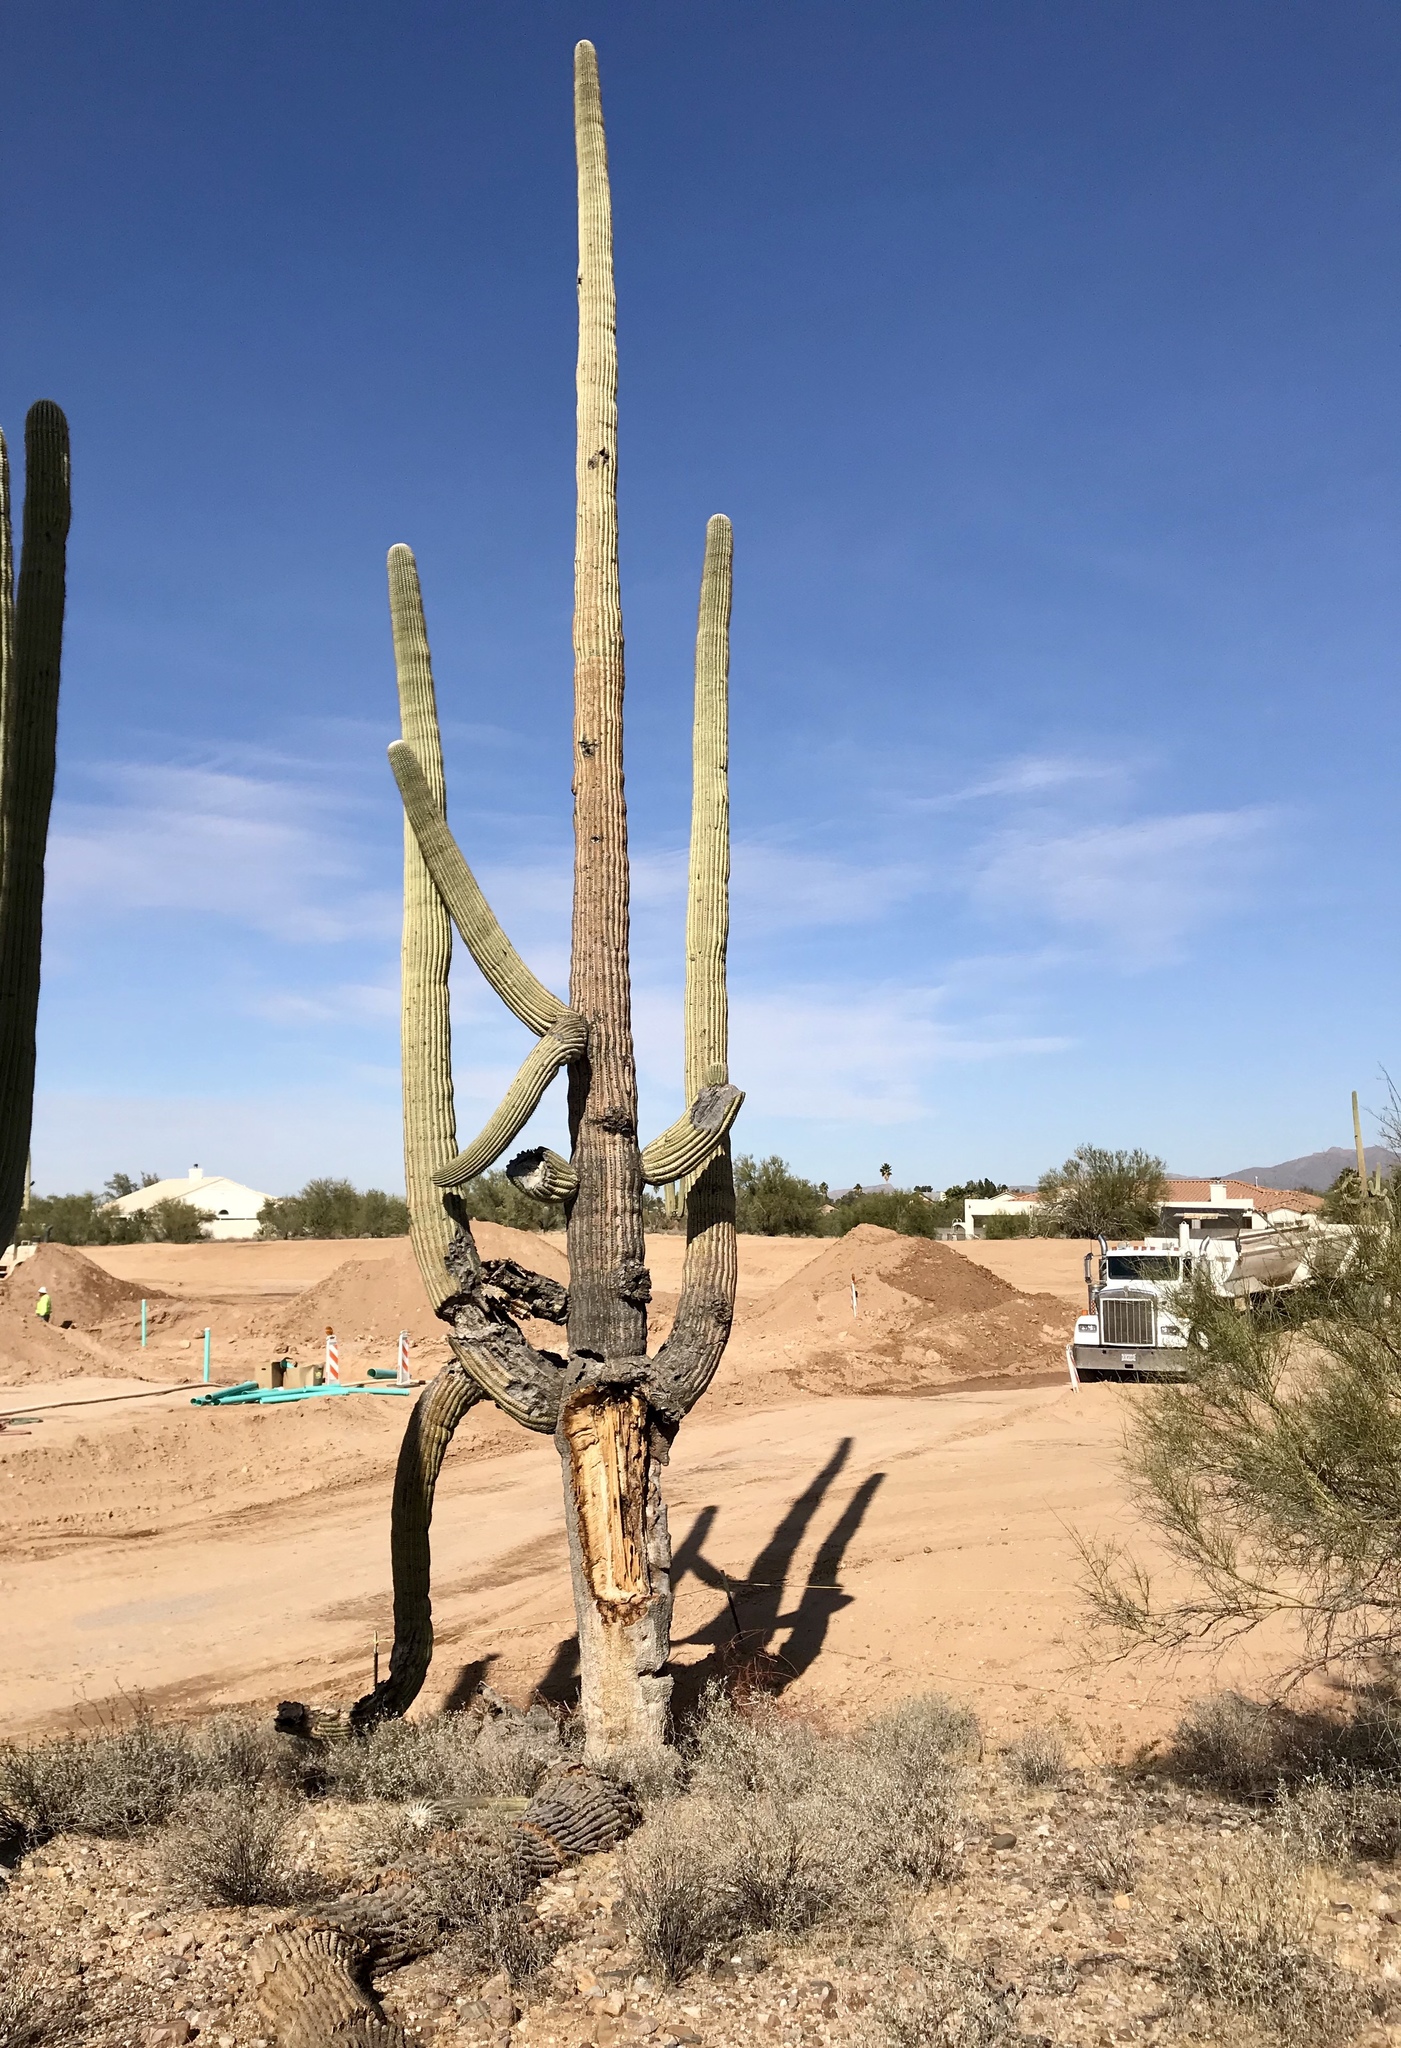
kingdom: Plantae
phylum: Tracheophyta
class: Magnoliopsida
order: Caryophyllales
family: Cactaceae
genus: Carnegiea
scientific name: Carnegiea gigantea
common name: Saguaro
